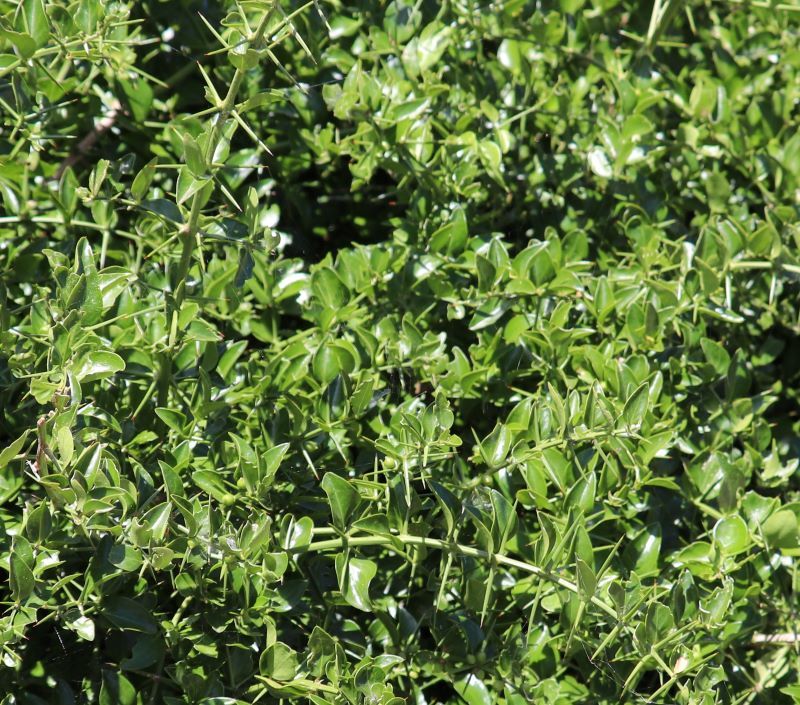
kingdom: Plantae
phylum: Tracheophyta
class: Magnoliopsida
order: Brassicales
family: Salvadoraceae
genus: Azima
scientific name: Azima tetracantha
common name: Needle bush
